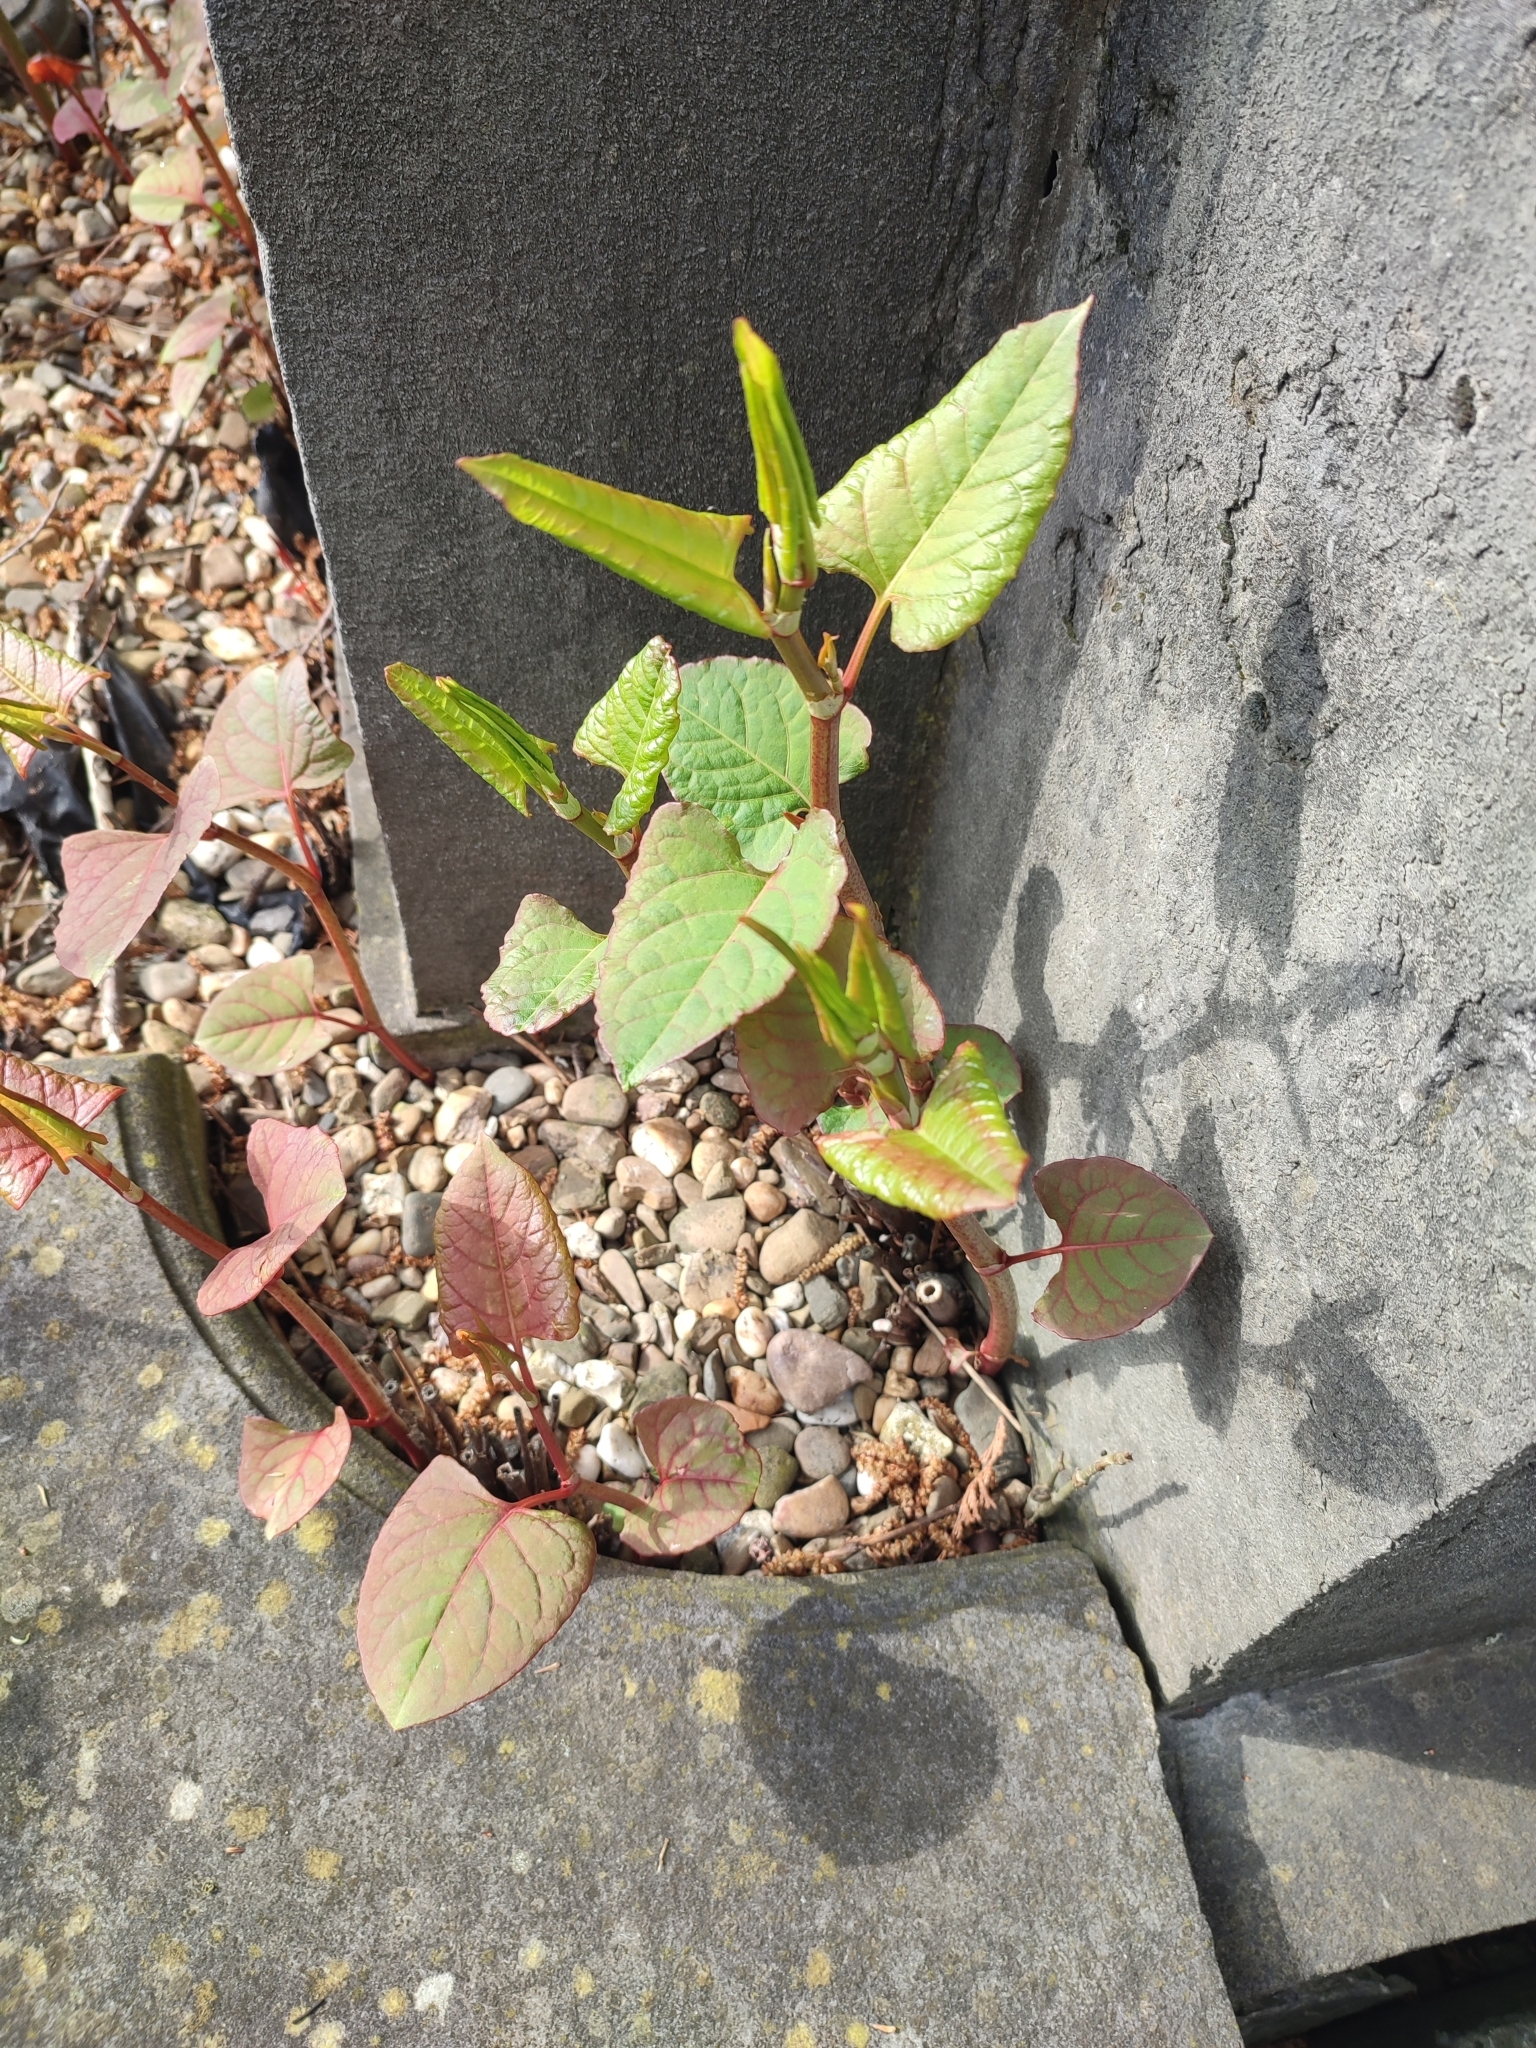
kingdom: Plantae
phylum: Tracheophyta
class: Magnoliopsida
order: Caryophyllales
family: Polygonaceae
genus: Reynoutria
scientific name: Reynoutria japonica
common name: Japanese knotweed
